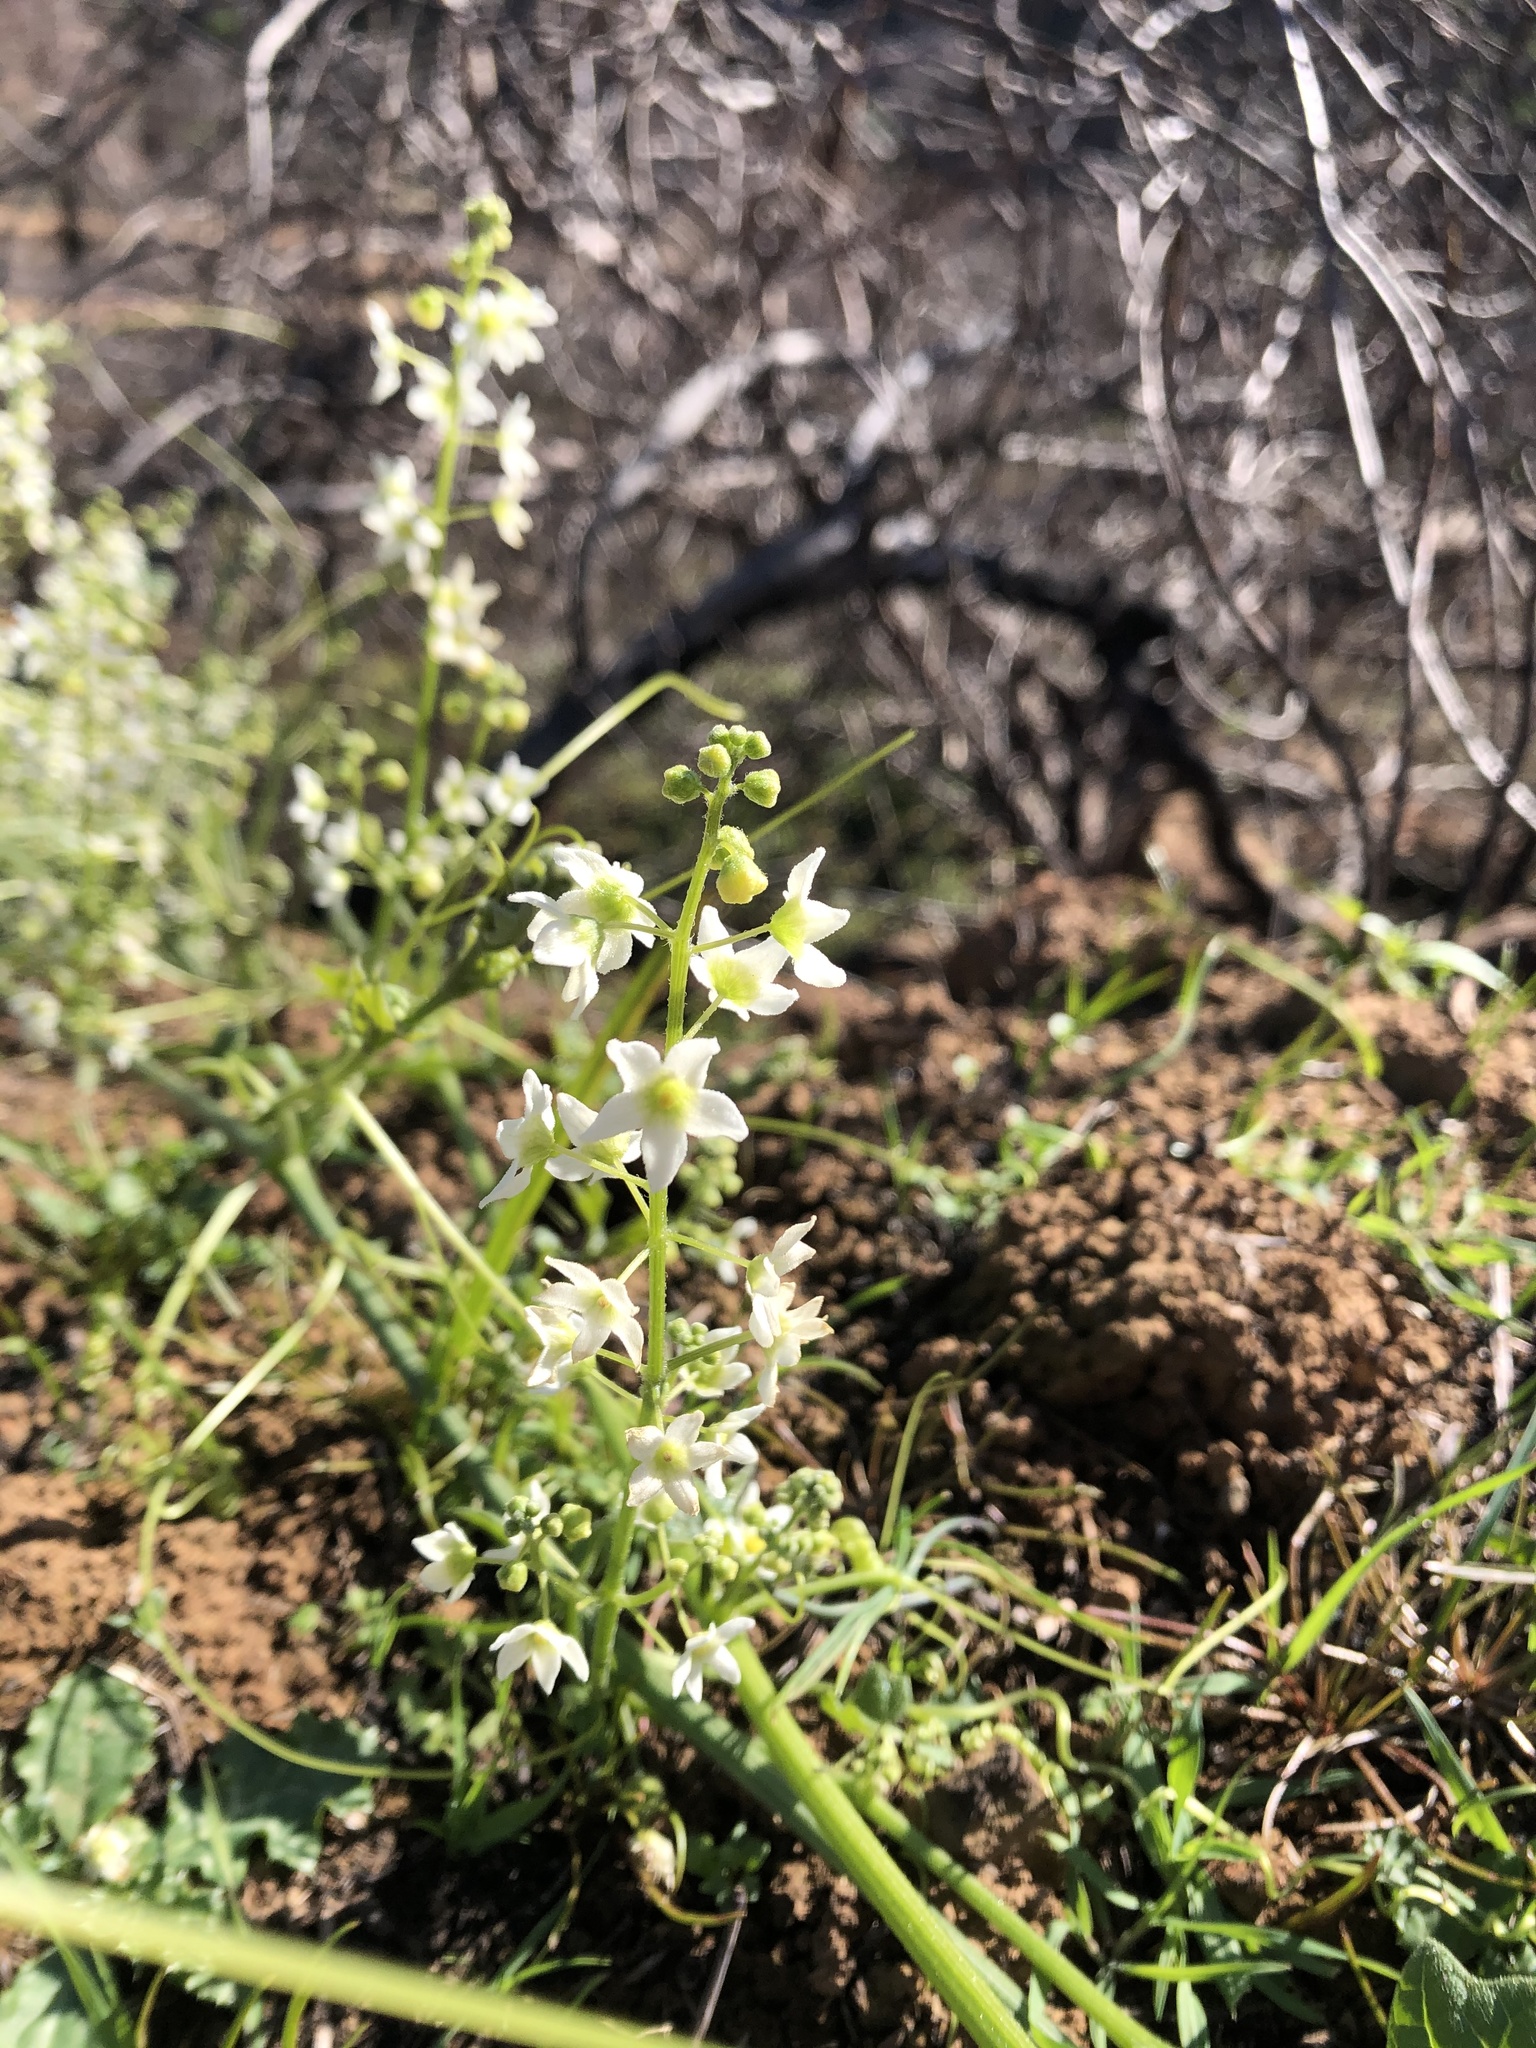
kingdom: Plantae
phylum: Tracheophyta
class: Magnoliopsida
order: Cucurbitales
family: Cucurbitaceae
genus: Marah
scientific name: Marah fabacea
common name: California manroot
